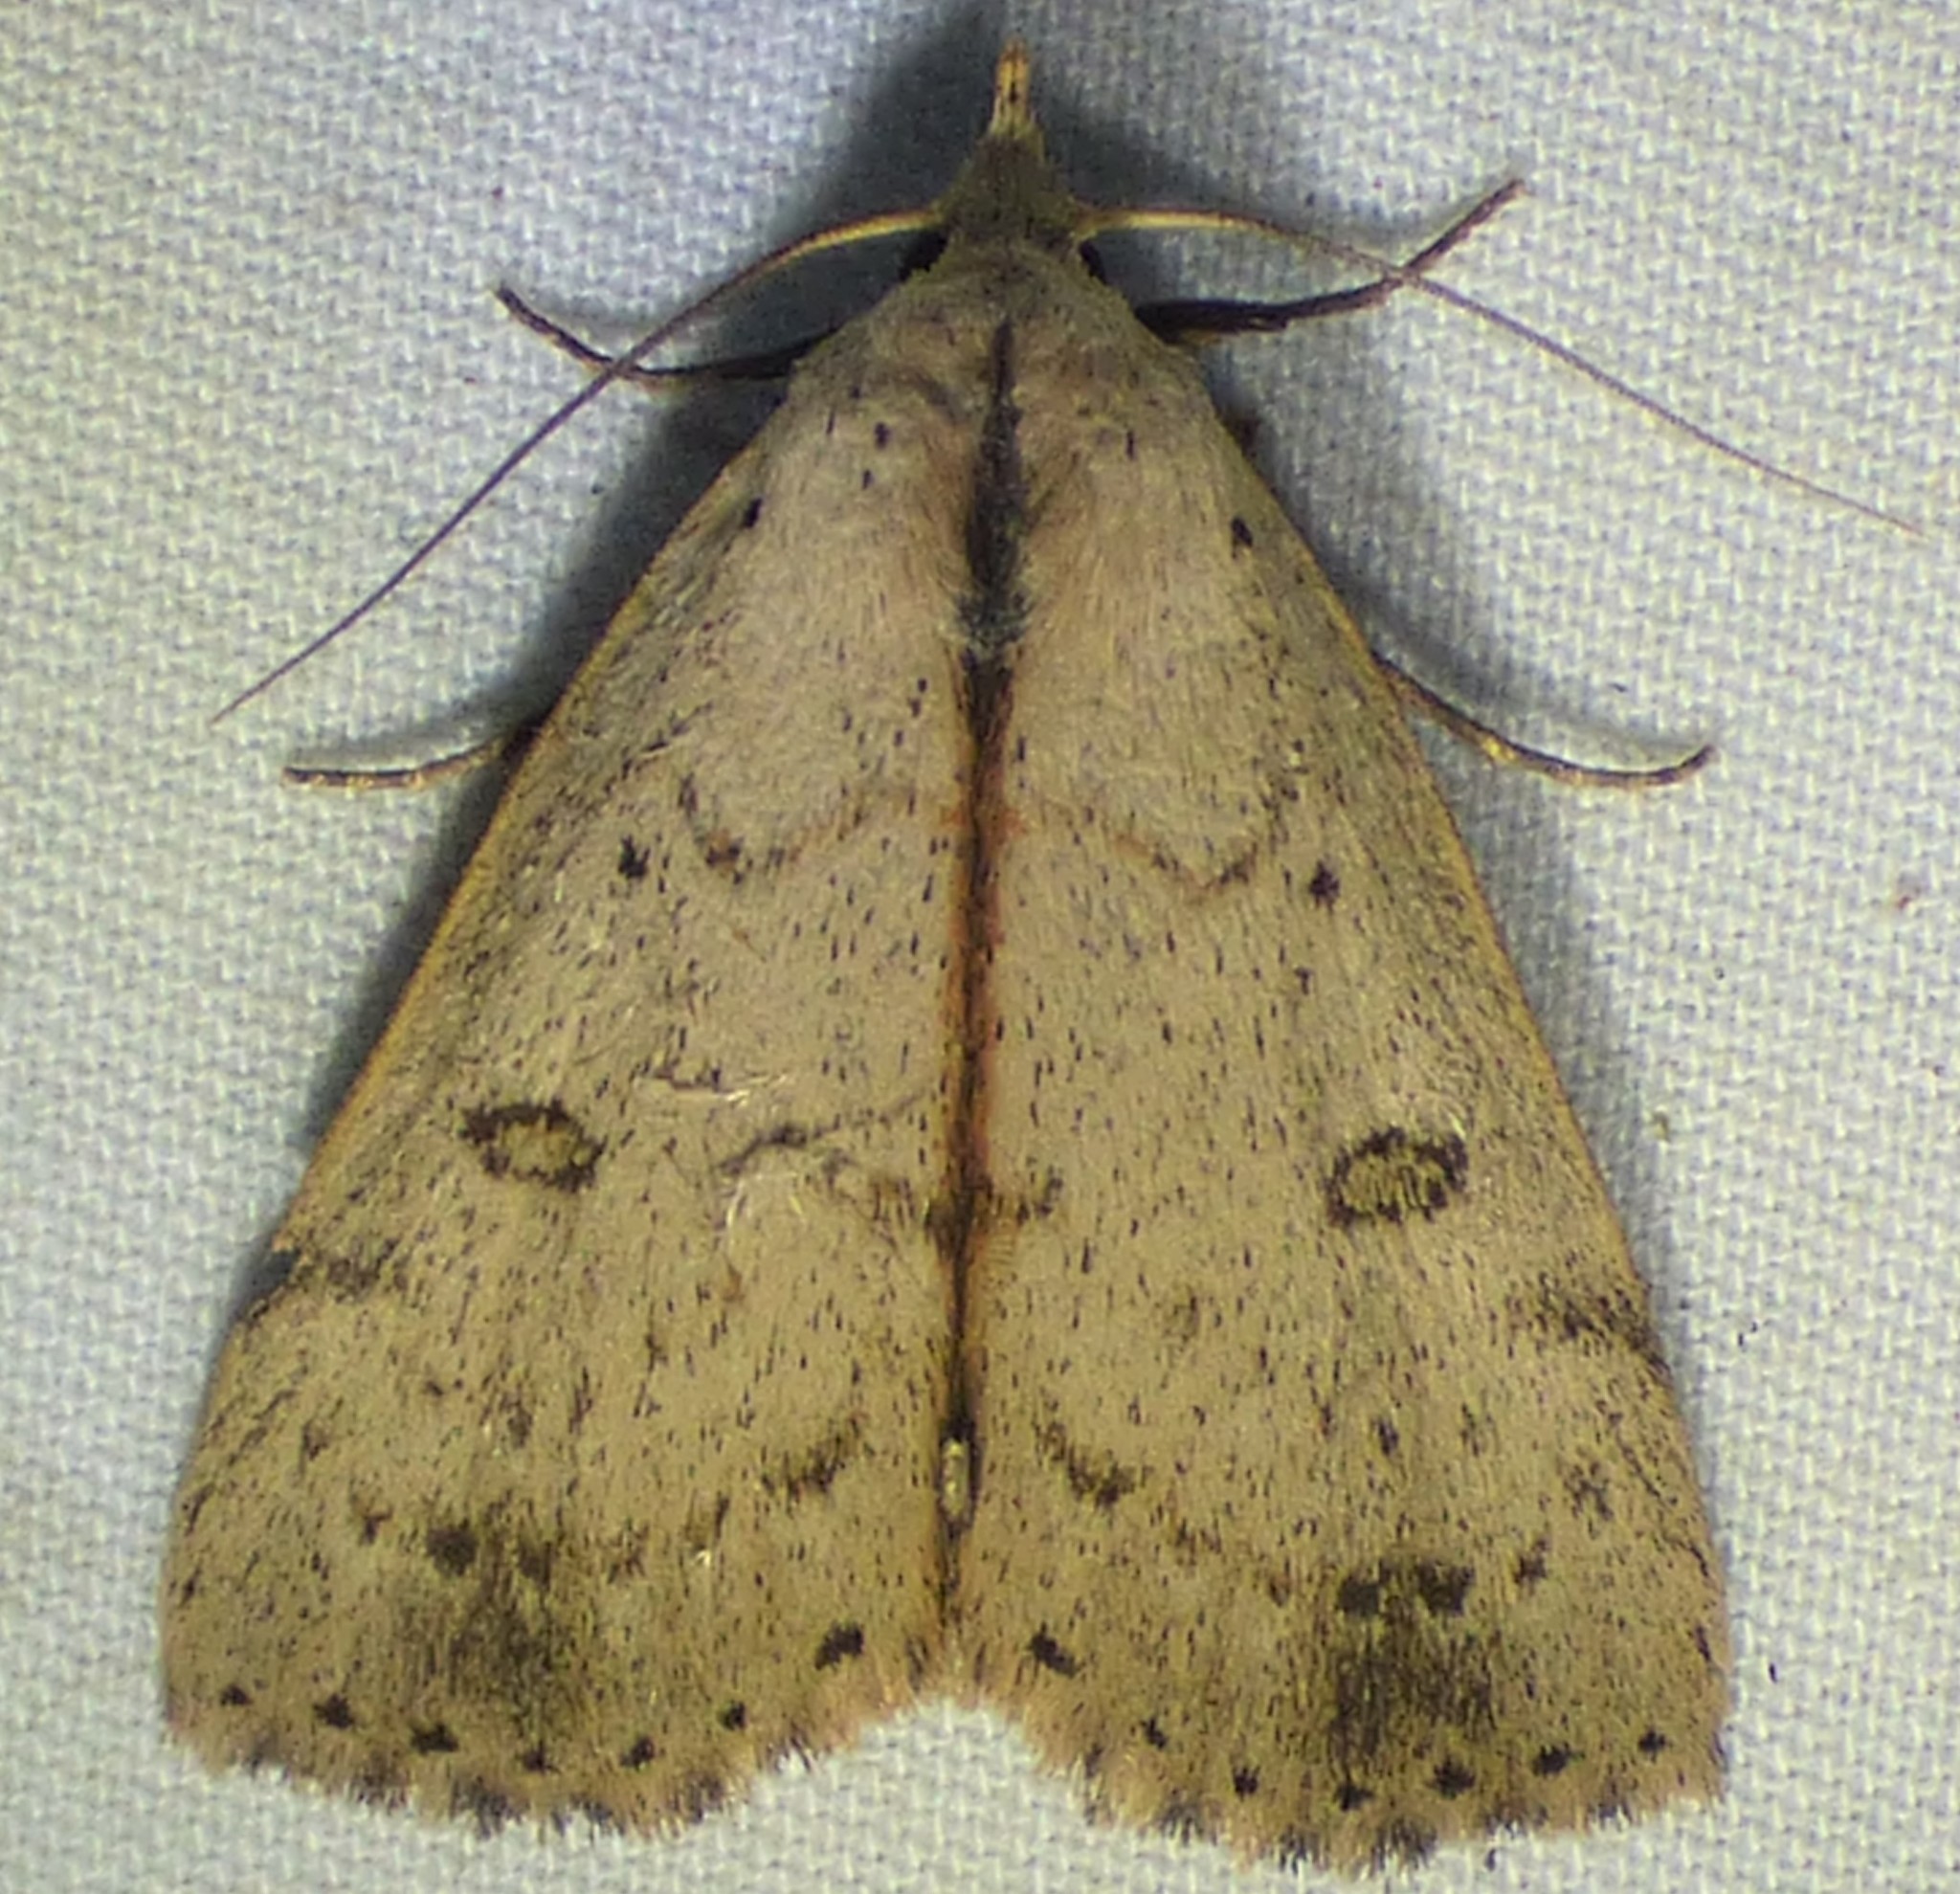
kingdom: Animalia
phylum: Arthropoda
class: Insecta
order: Lepidoptera
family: Erebidae
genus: Scolecocampa
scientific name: Scolecocampa liburna
